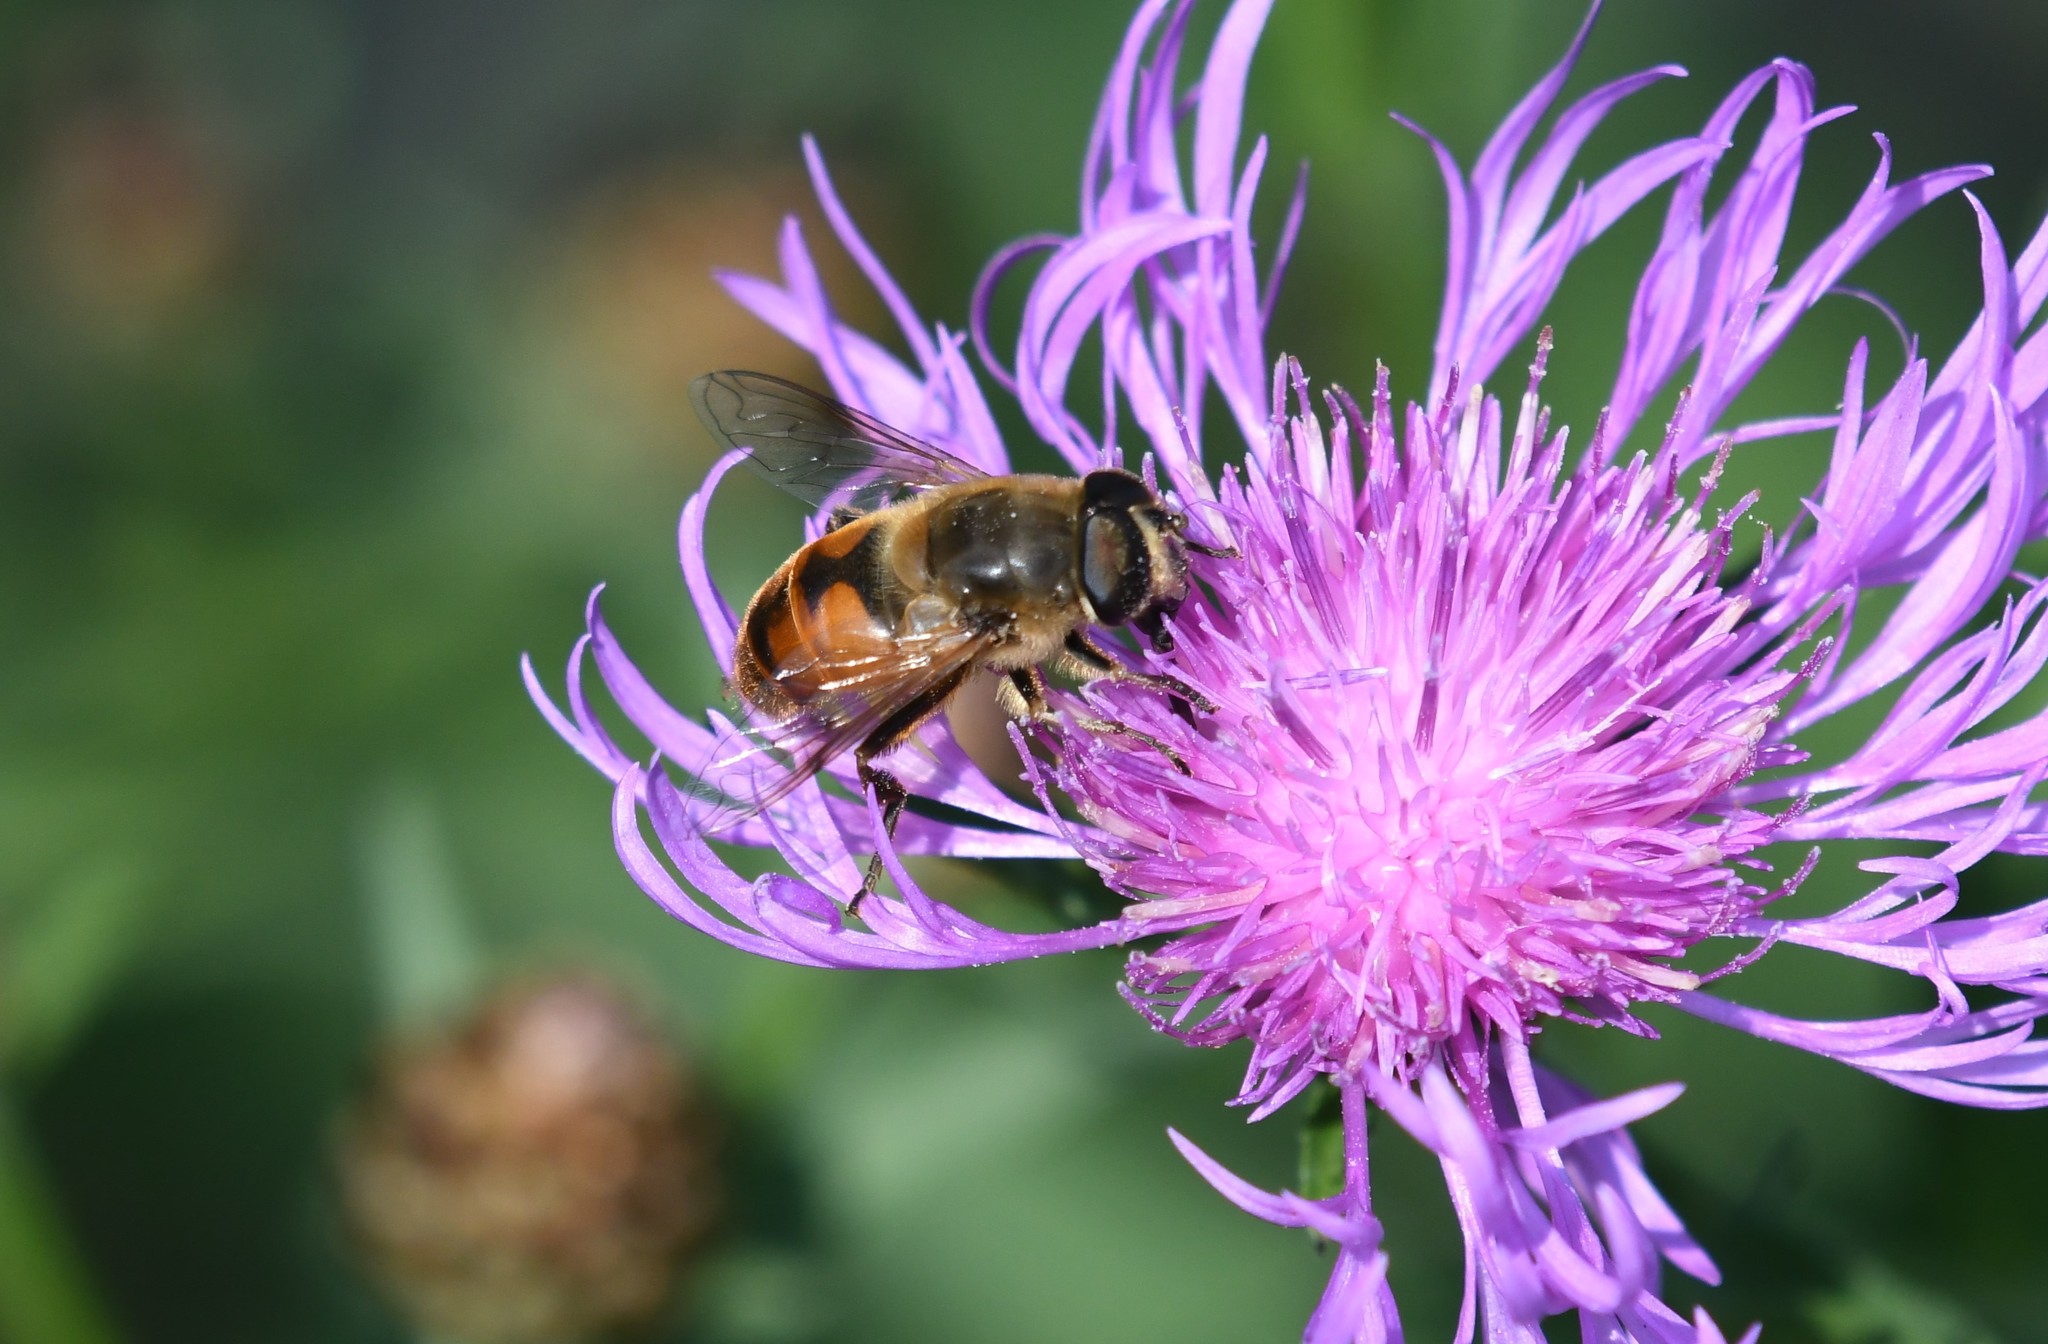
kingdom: Animalia
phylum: Arthropoda
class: Insecta
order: Diptera
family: Syrphidae
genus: Eristalis
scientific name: Eristalis tenax
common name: Drone fly
